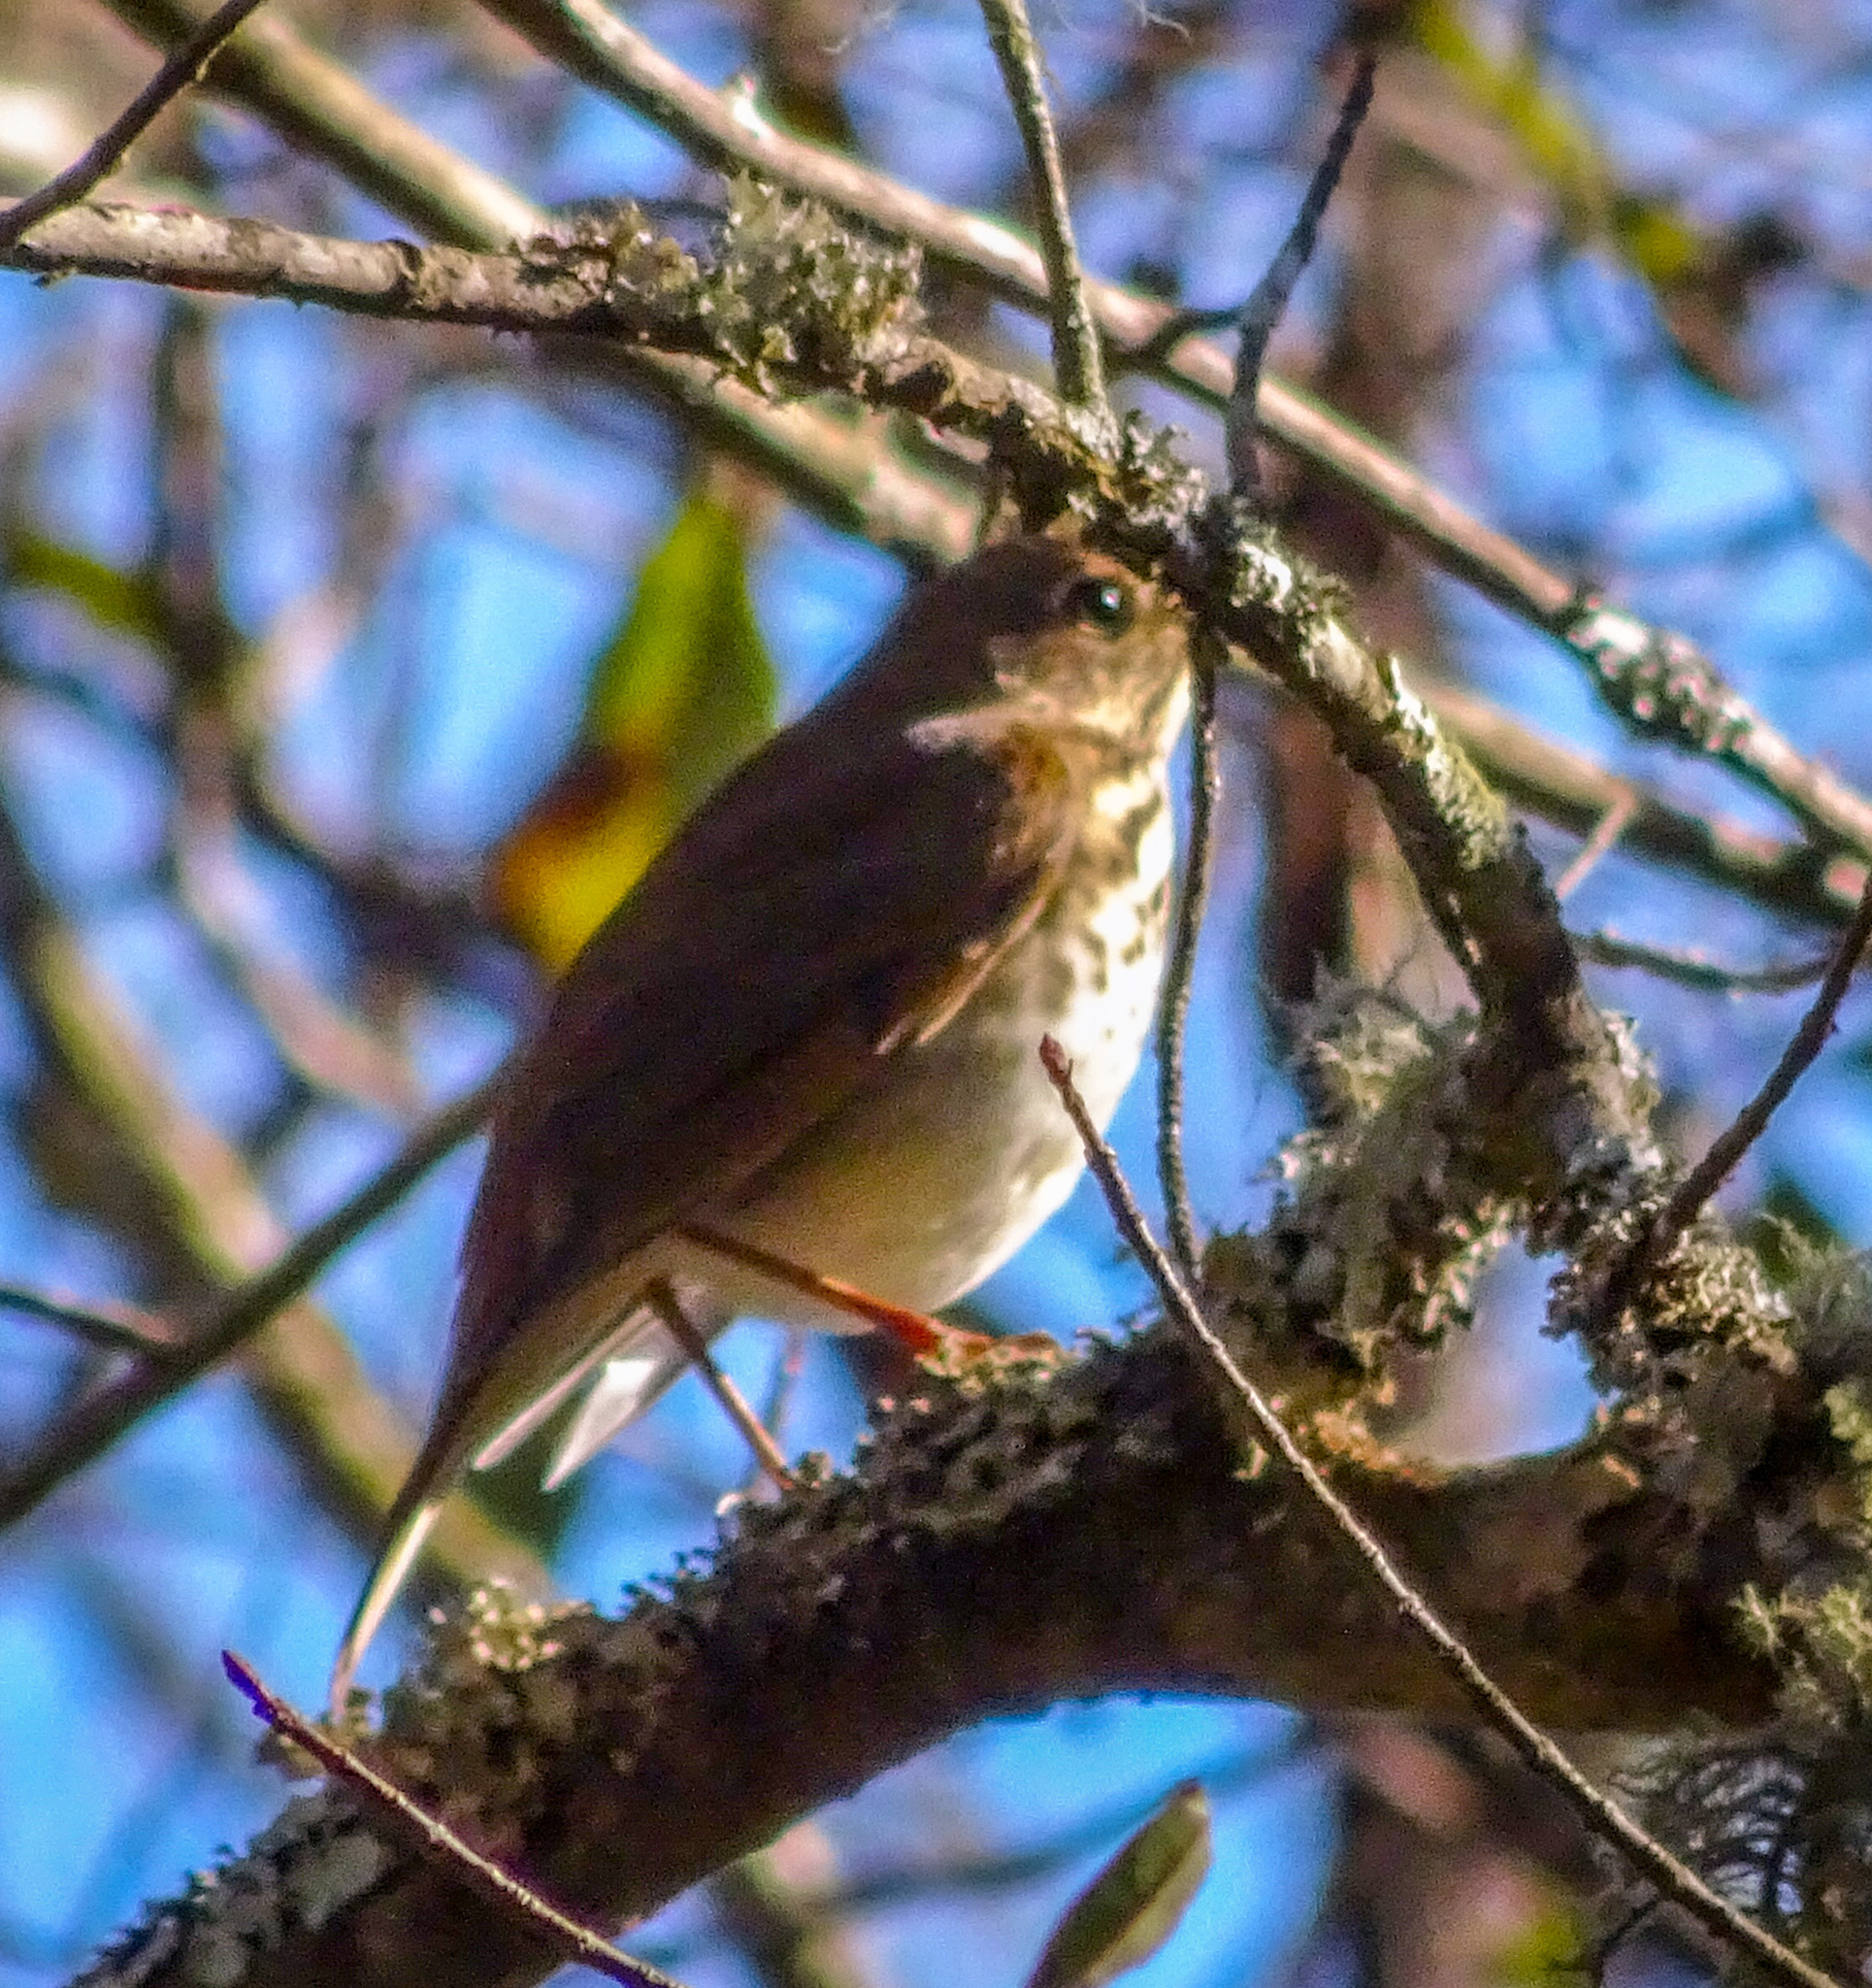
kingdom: Animalia
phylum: Chordata
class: Aves
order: Passeriformes
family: Turdidae
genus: Catharus
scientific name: Catharus guttatus
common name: Hermit thrush
